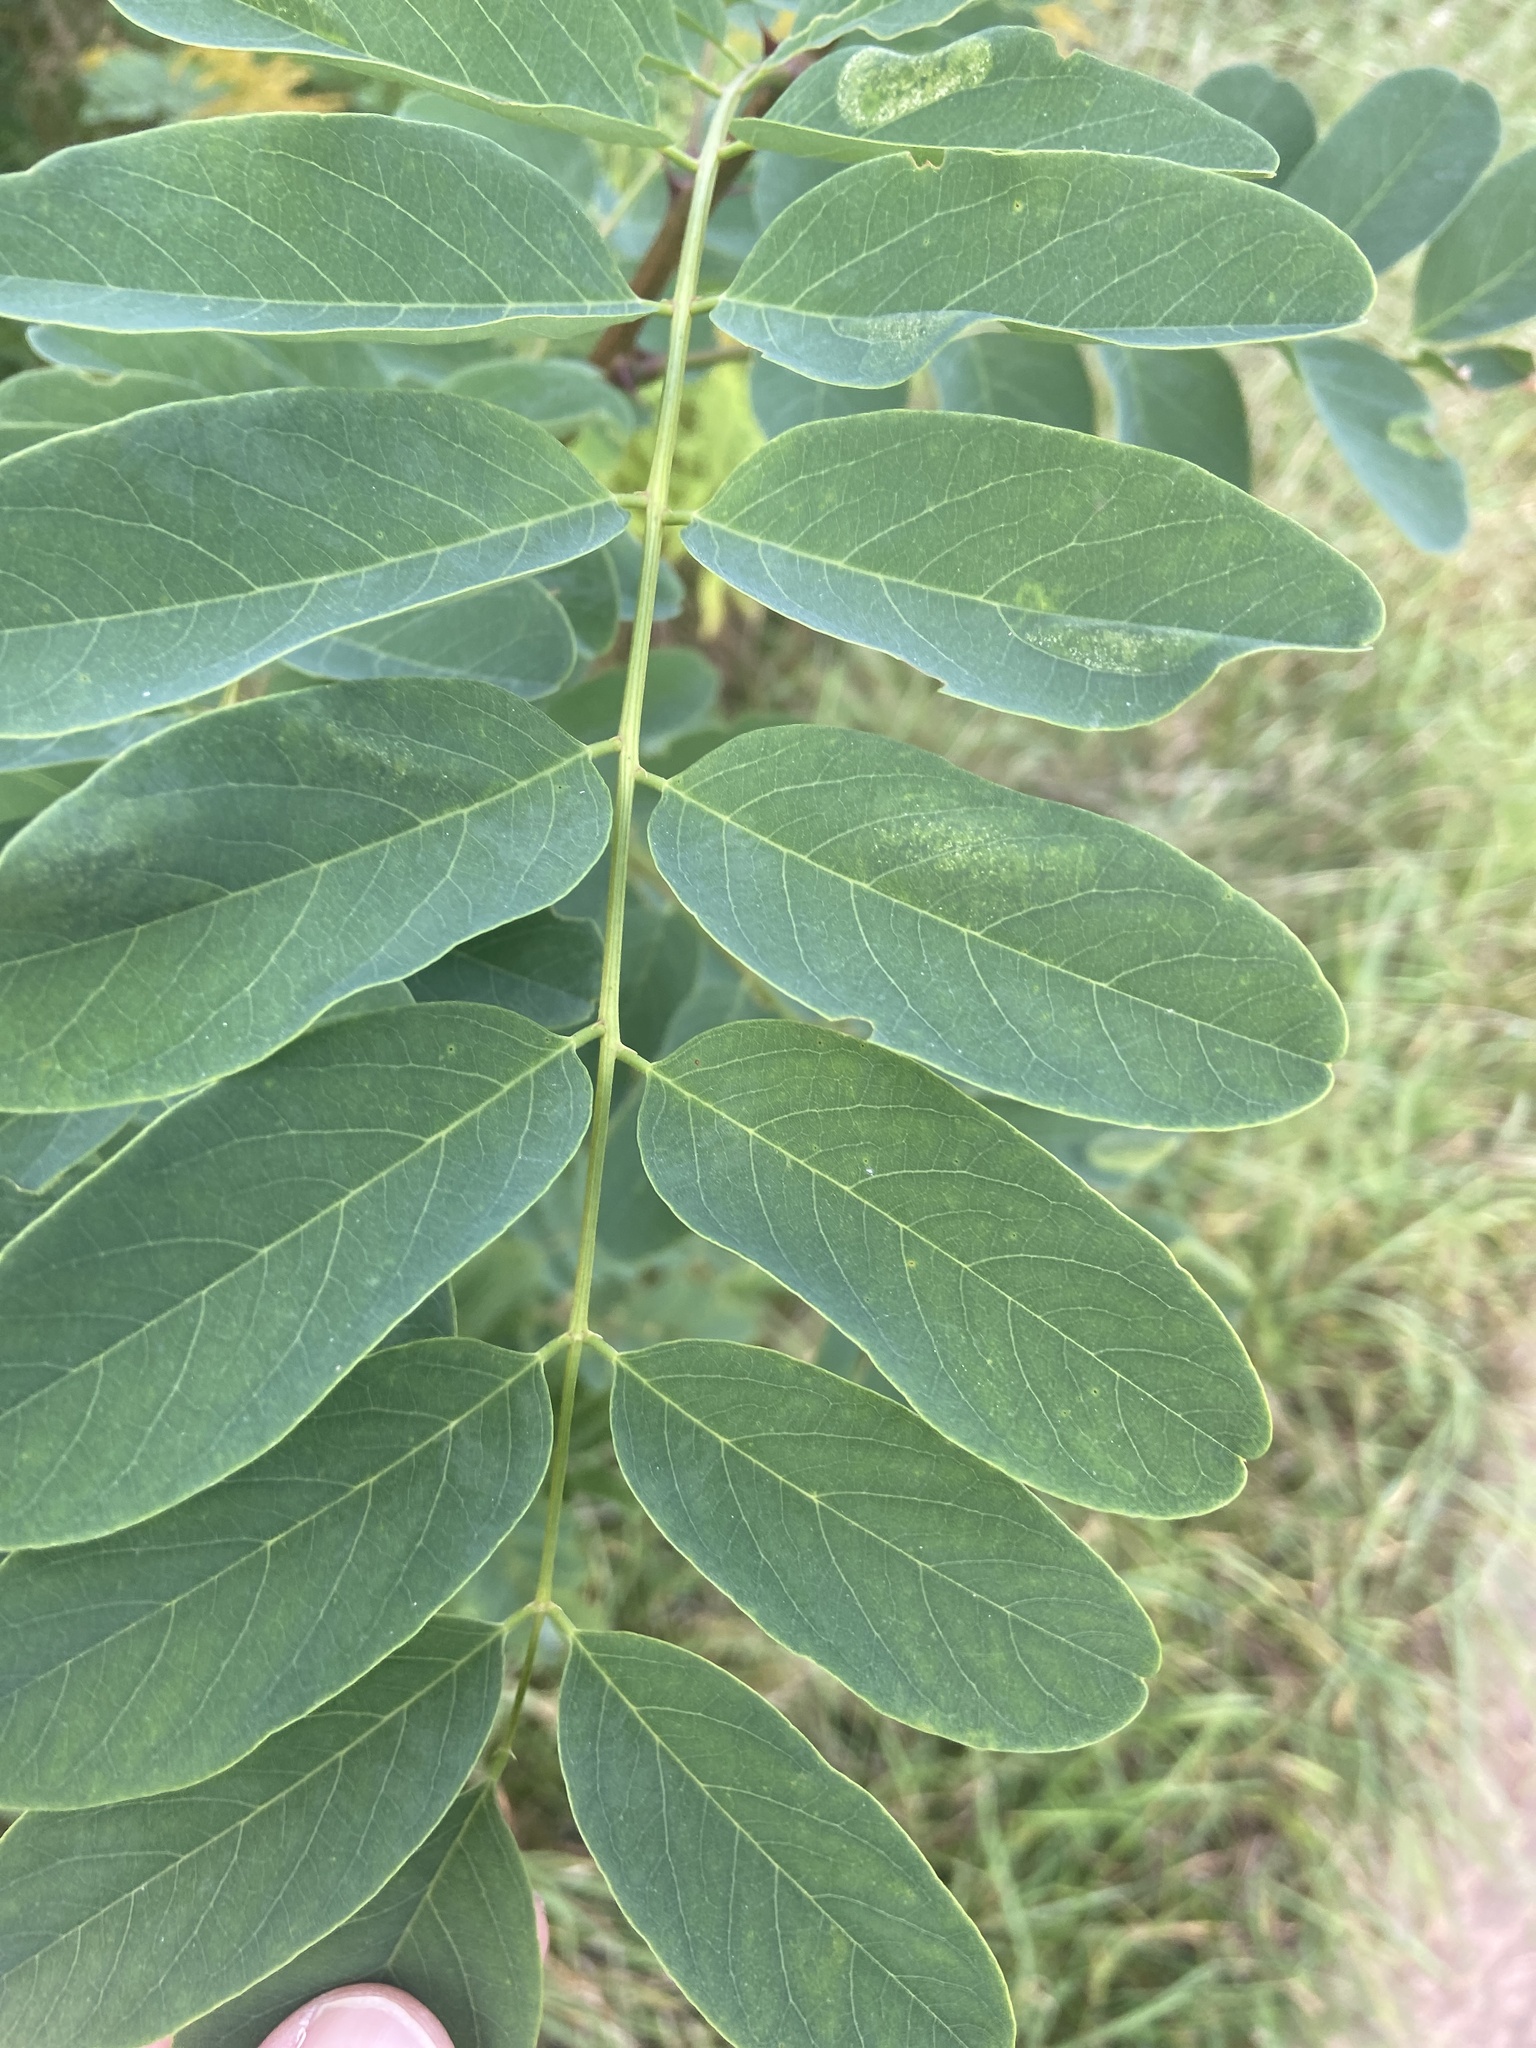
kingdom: Plantae
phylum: Tracheophyta
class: Magnoliopsida
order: Fabales
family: Fabaceae
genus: Robinia
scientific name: Robinia pseudoacacia
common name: Black locust
